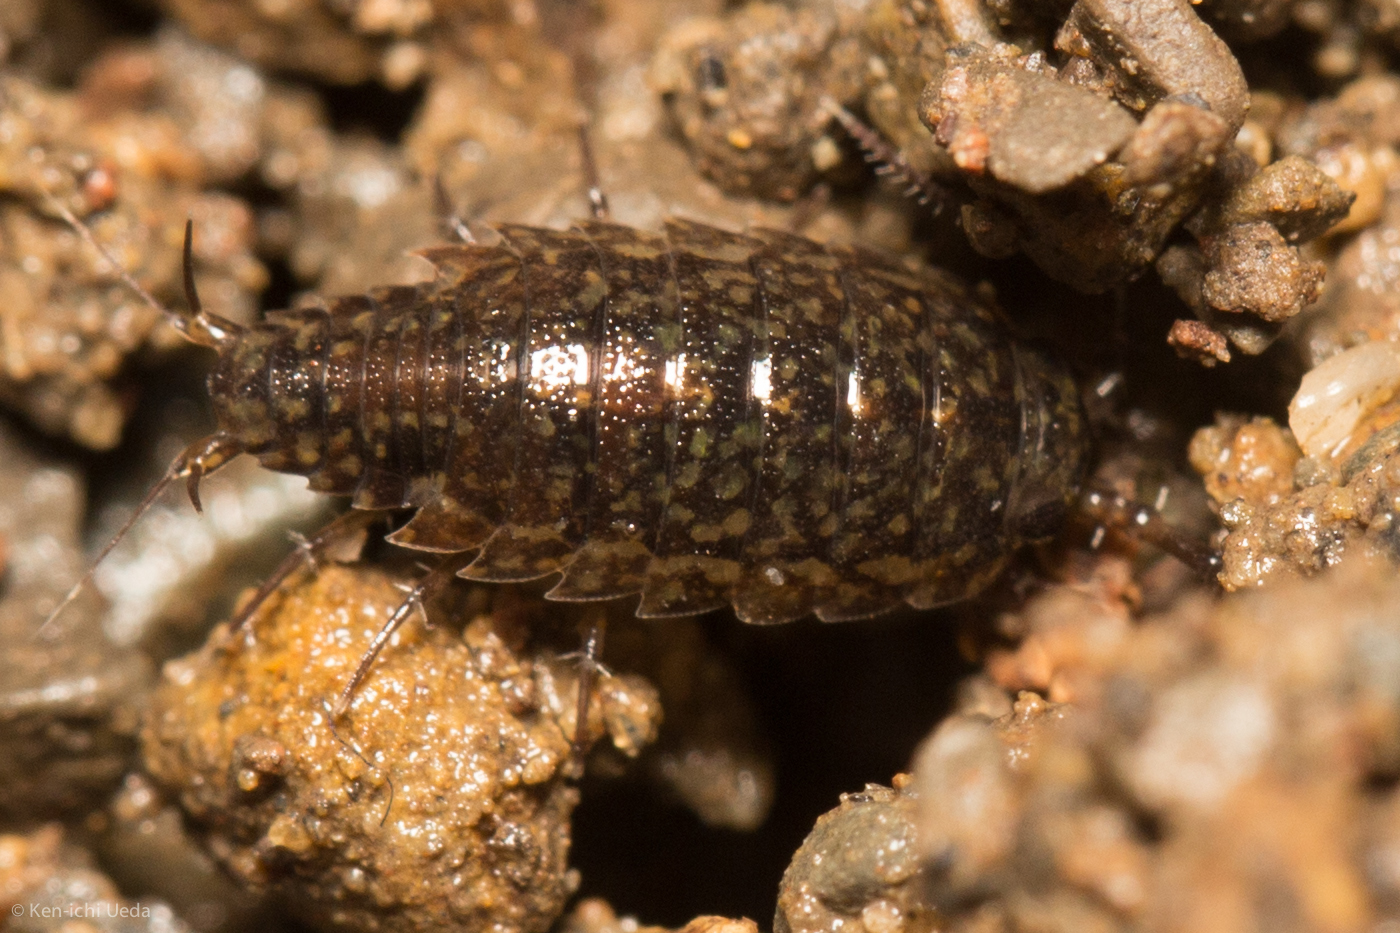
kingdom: Animalia
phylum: Arthropoda
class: Malacostraca
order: Isopoda
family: Ligiidae
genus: Ligidium
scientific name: Ligidium latum
